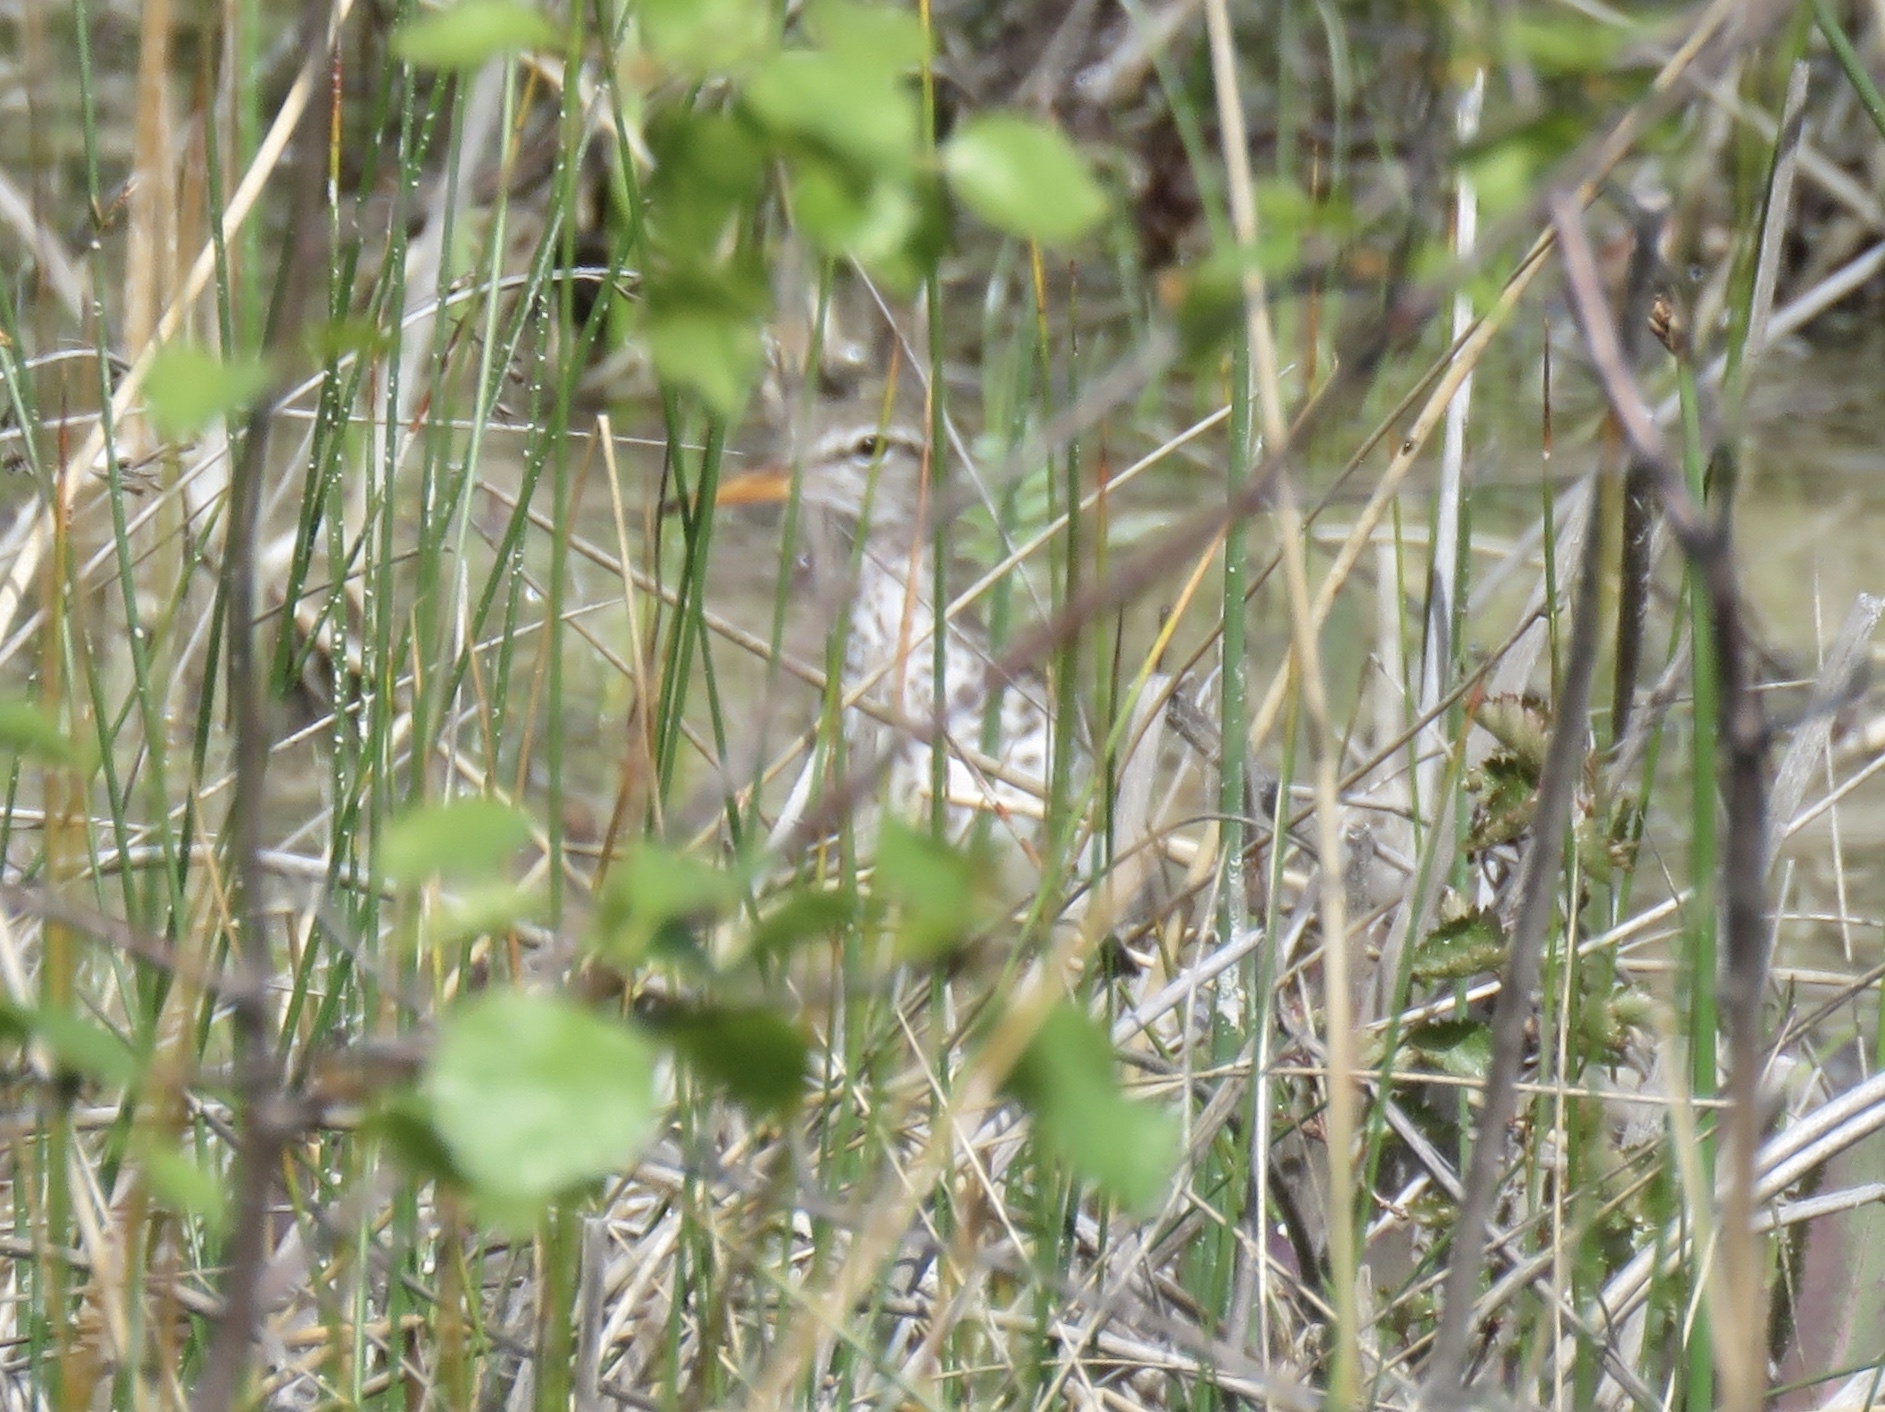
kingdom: Animalia
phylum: Chordata
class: Aves
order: Charadriiformes
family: Scolopacidae
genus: Actitis
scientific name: Actitis macularius
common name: Spotted sandpiper
